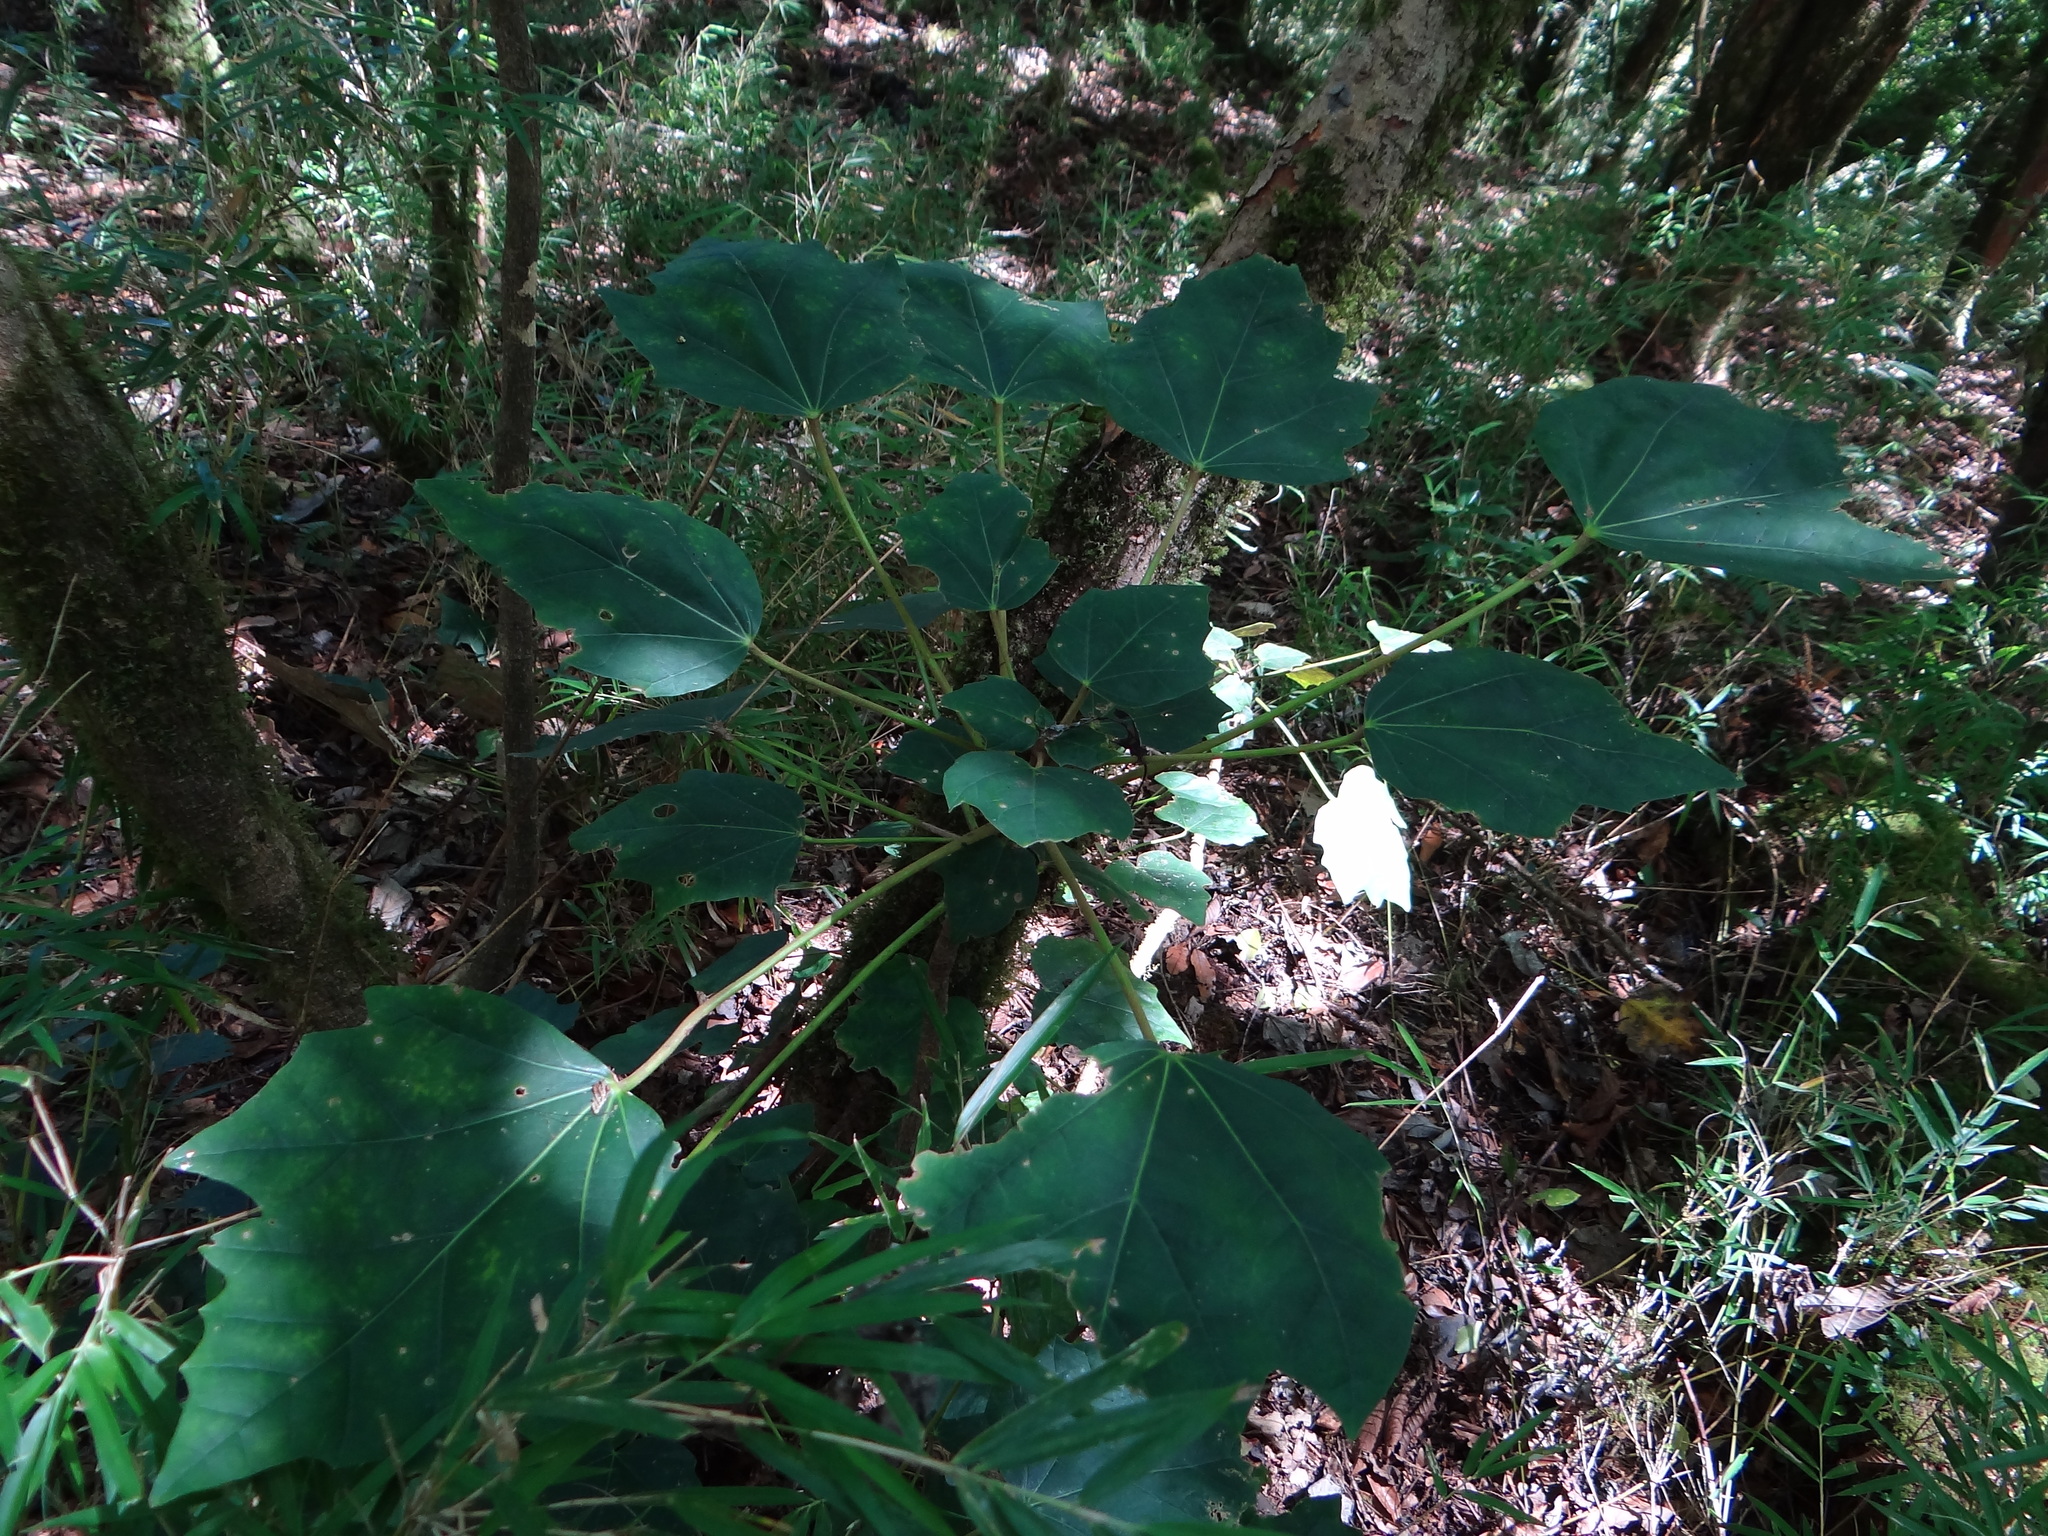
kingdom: Plantae
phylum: Tracheophyta
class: Magnoliopsida
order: Apiales
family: Araliaceae
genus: Sinopanax
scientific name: Sinopanax formosanus
